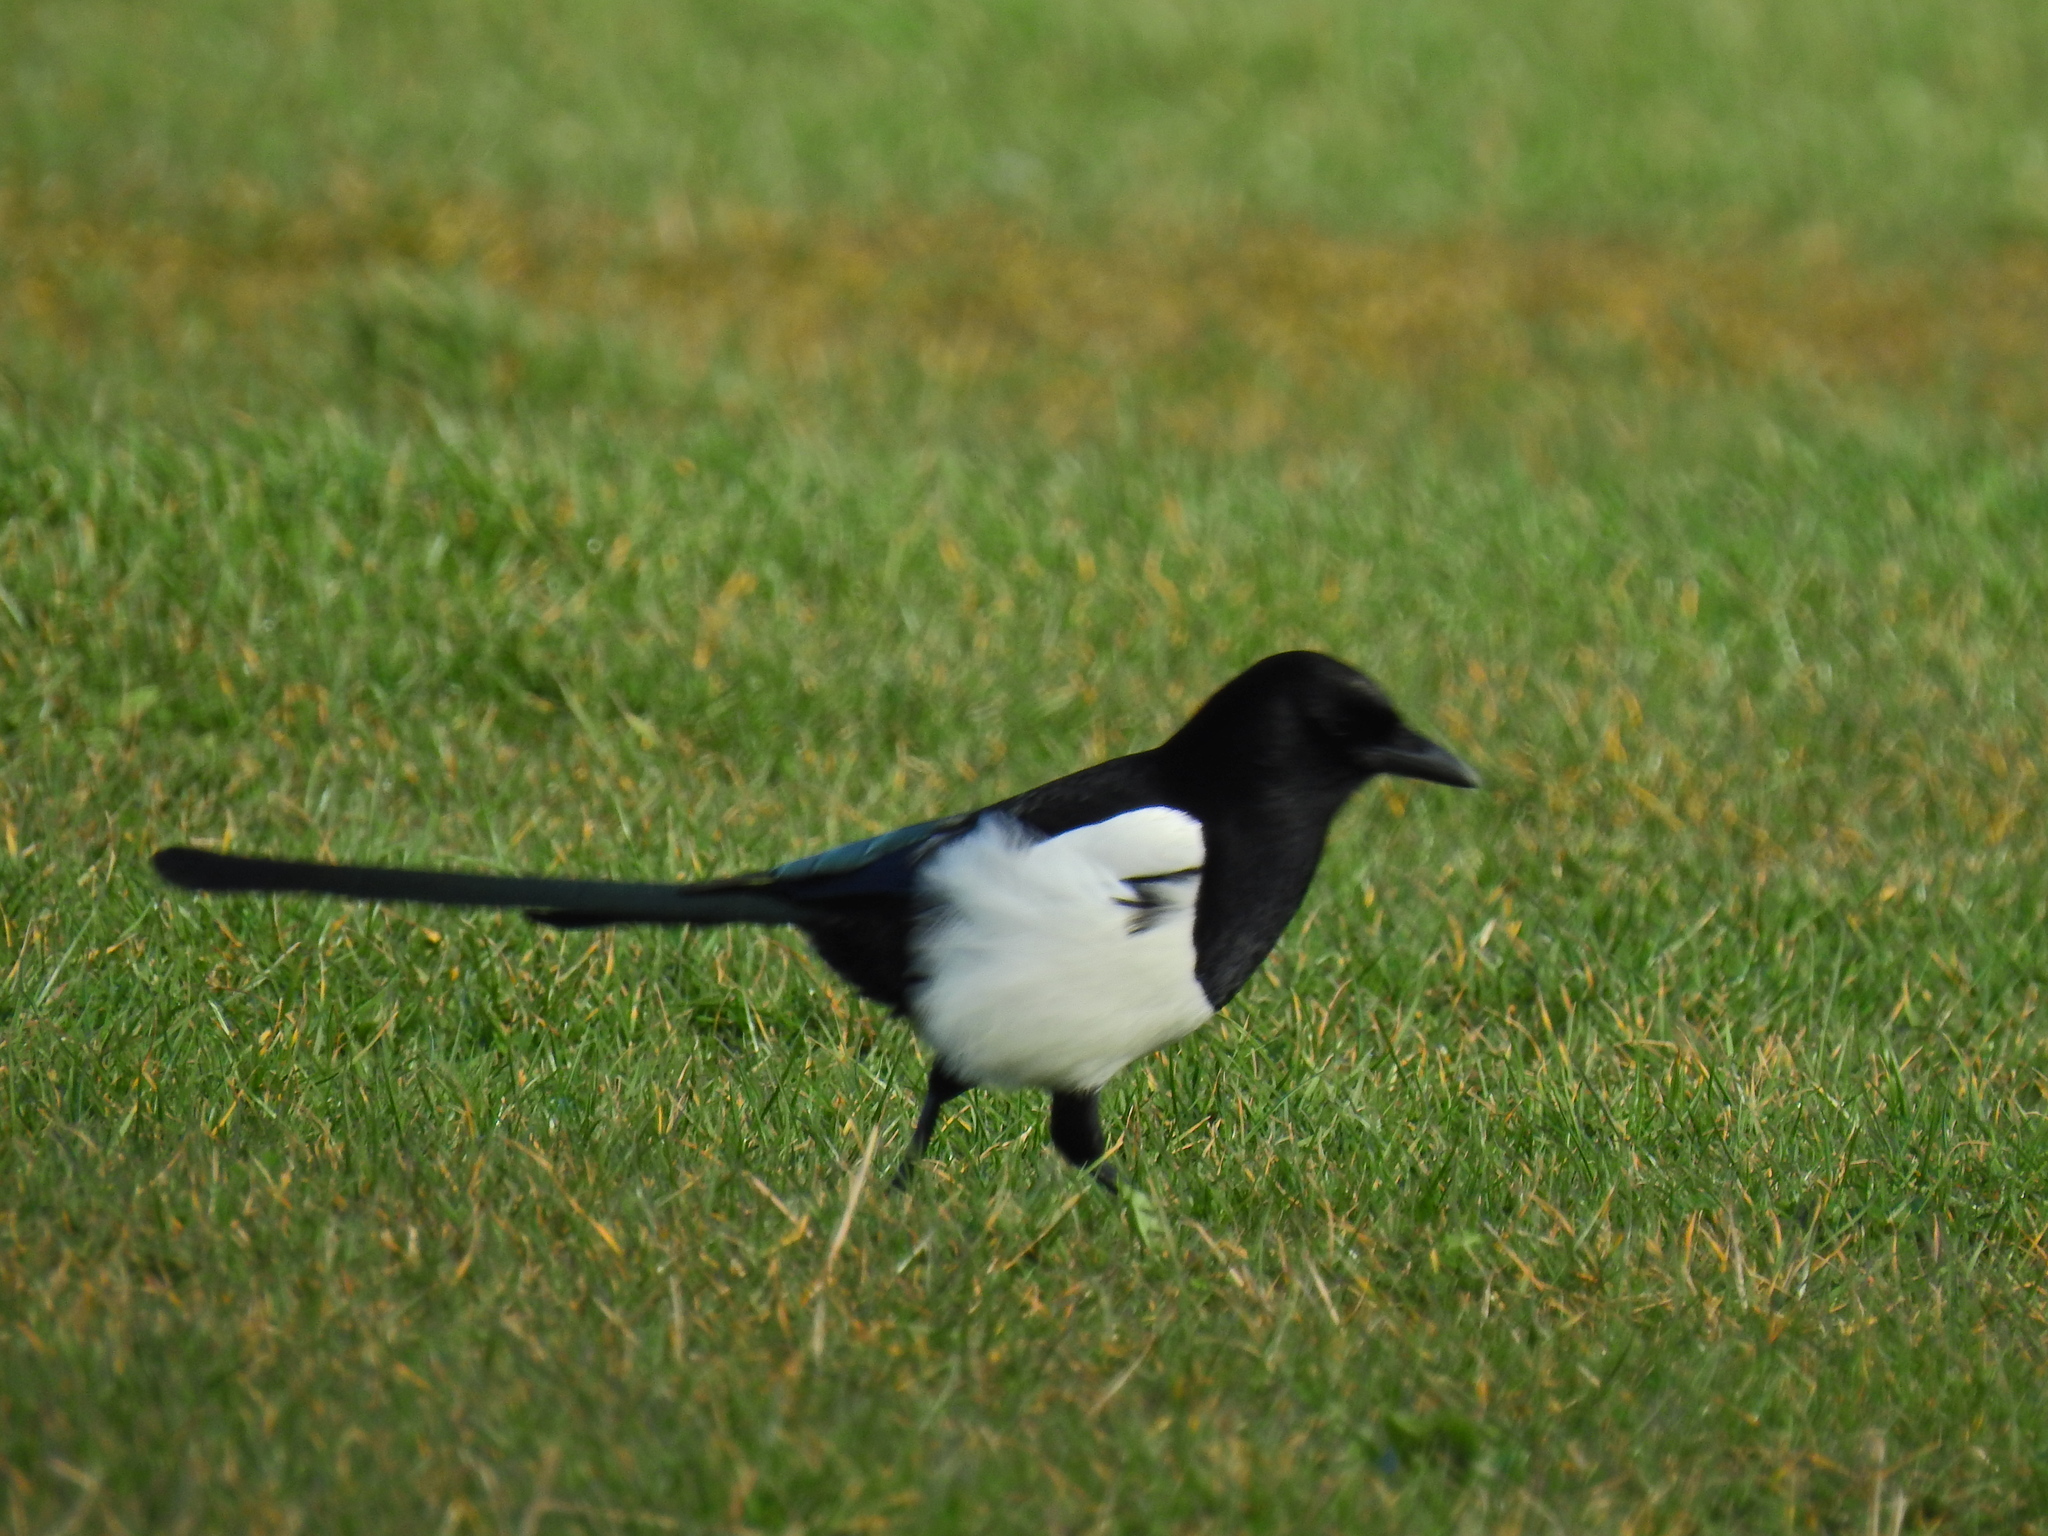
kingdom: Animalia
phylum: Chordata
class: Aves
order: Passeriformes
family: Corvidae
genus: Pica
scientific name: Pica pica
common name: Eurasian magpie
